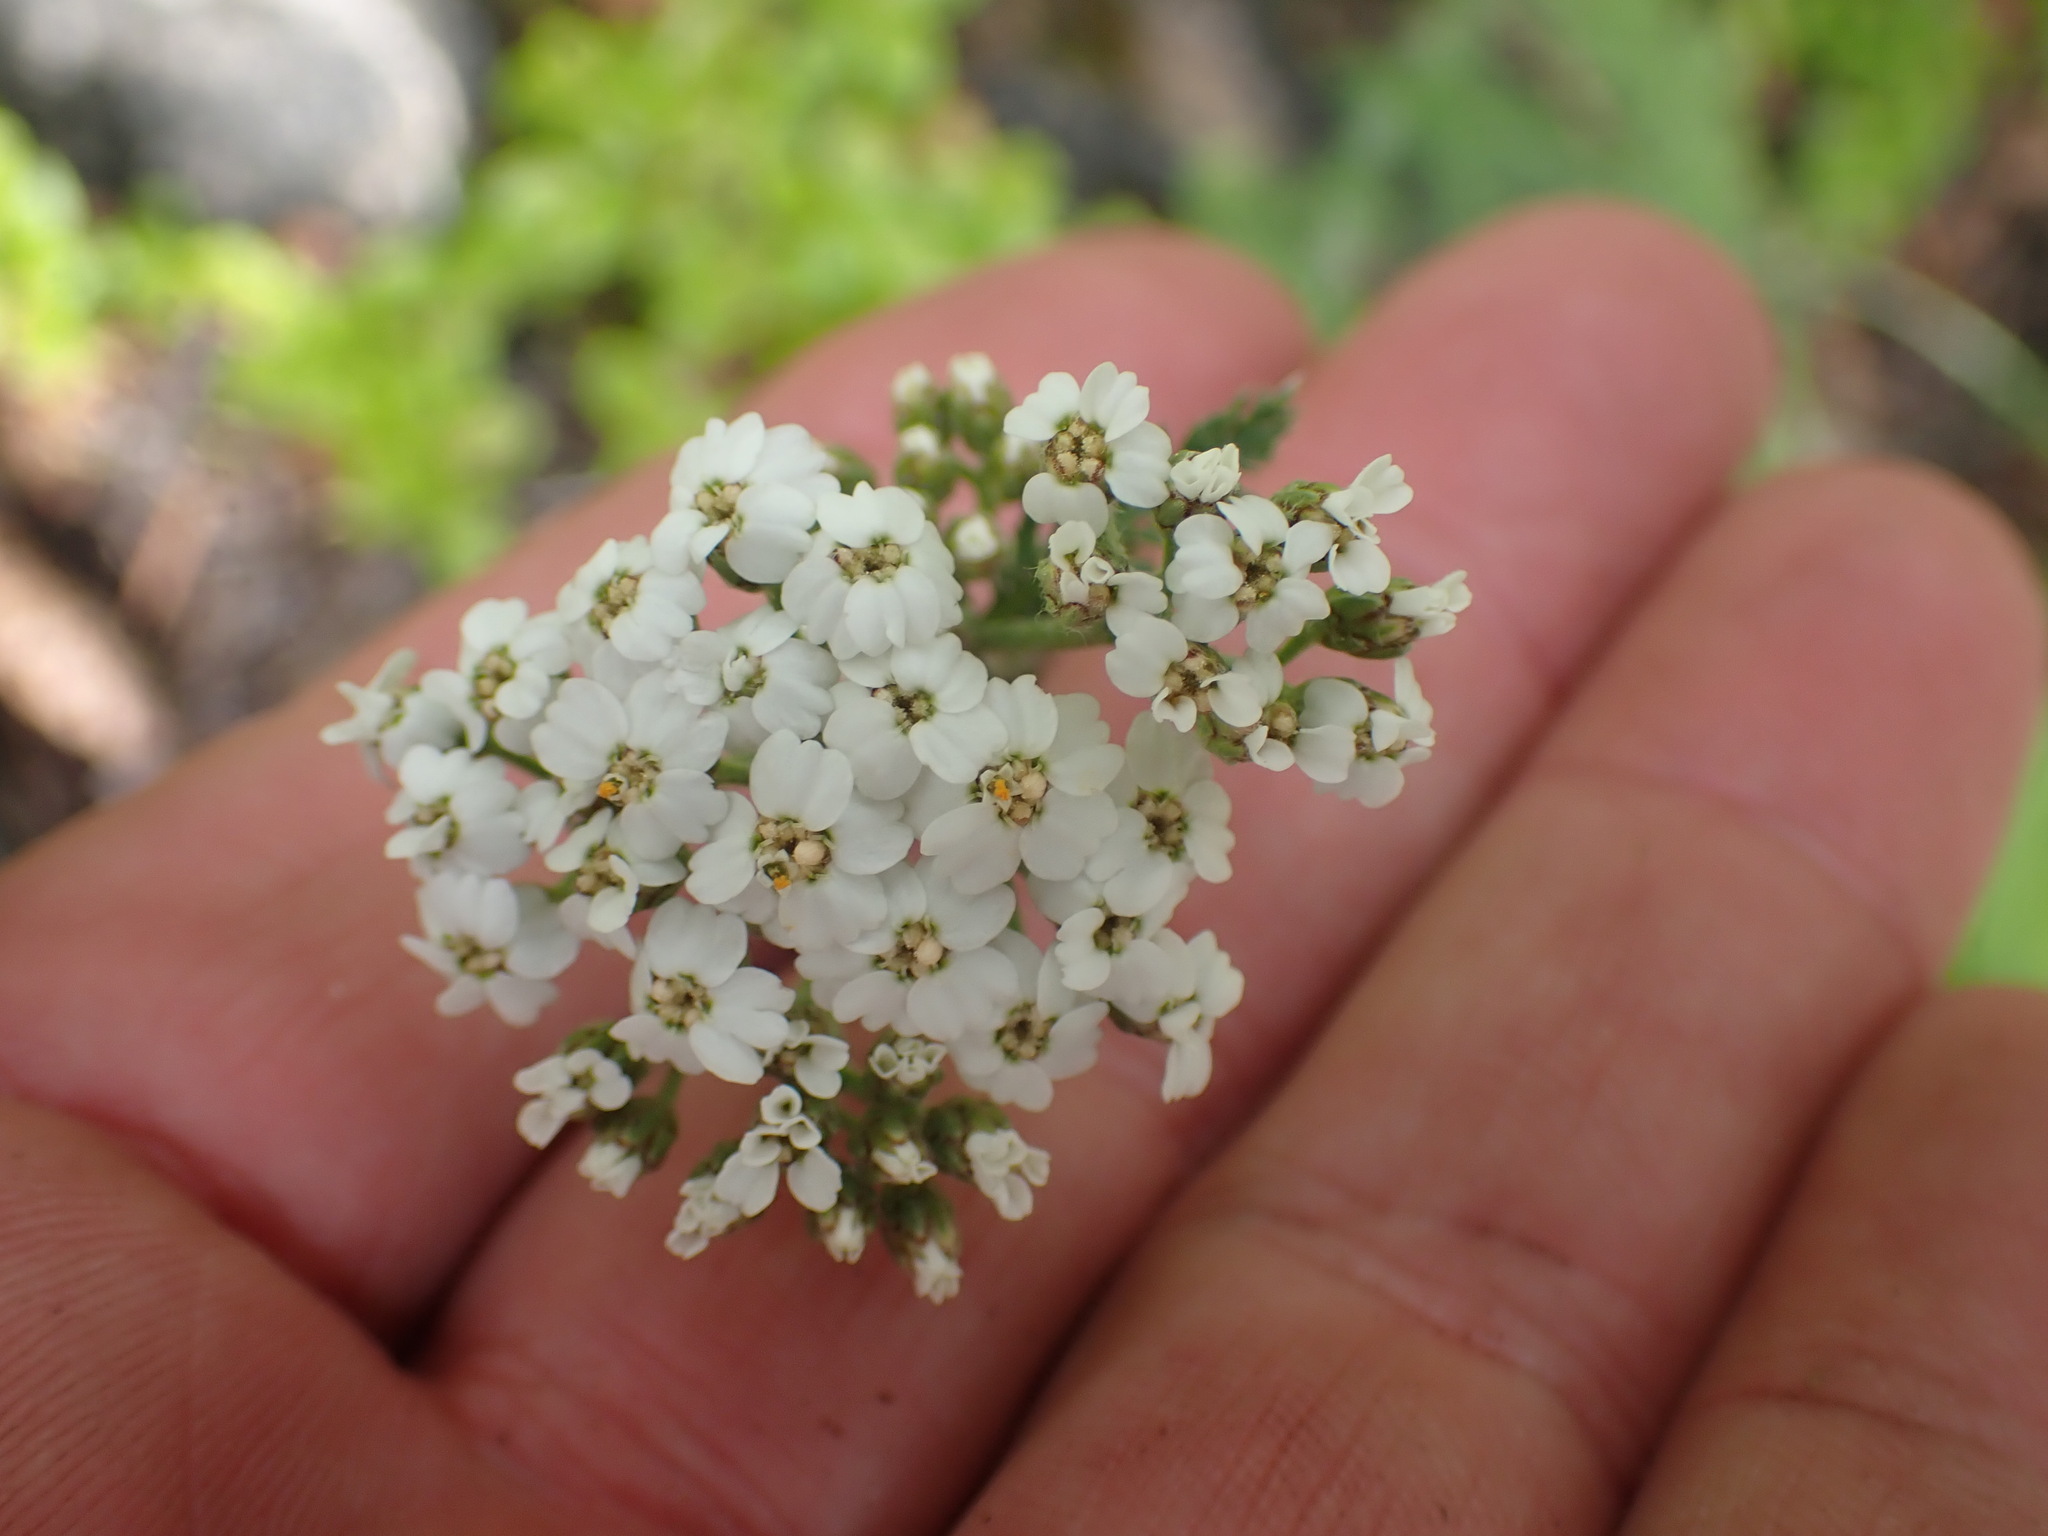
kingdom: Plantae
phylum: Tracheophyta
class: Magnoliopsida
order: Asterales
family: Asteraceae
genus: Achillea
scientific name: Achillea millefolium
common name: Yarrow
